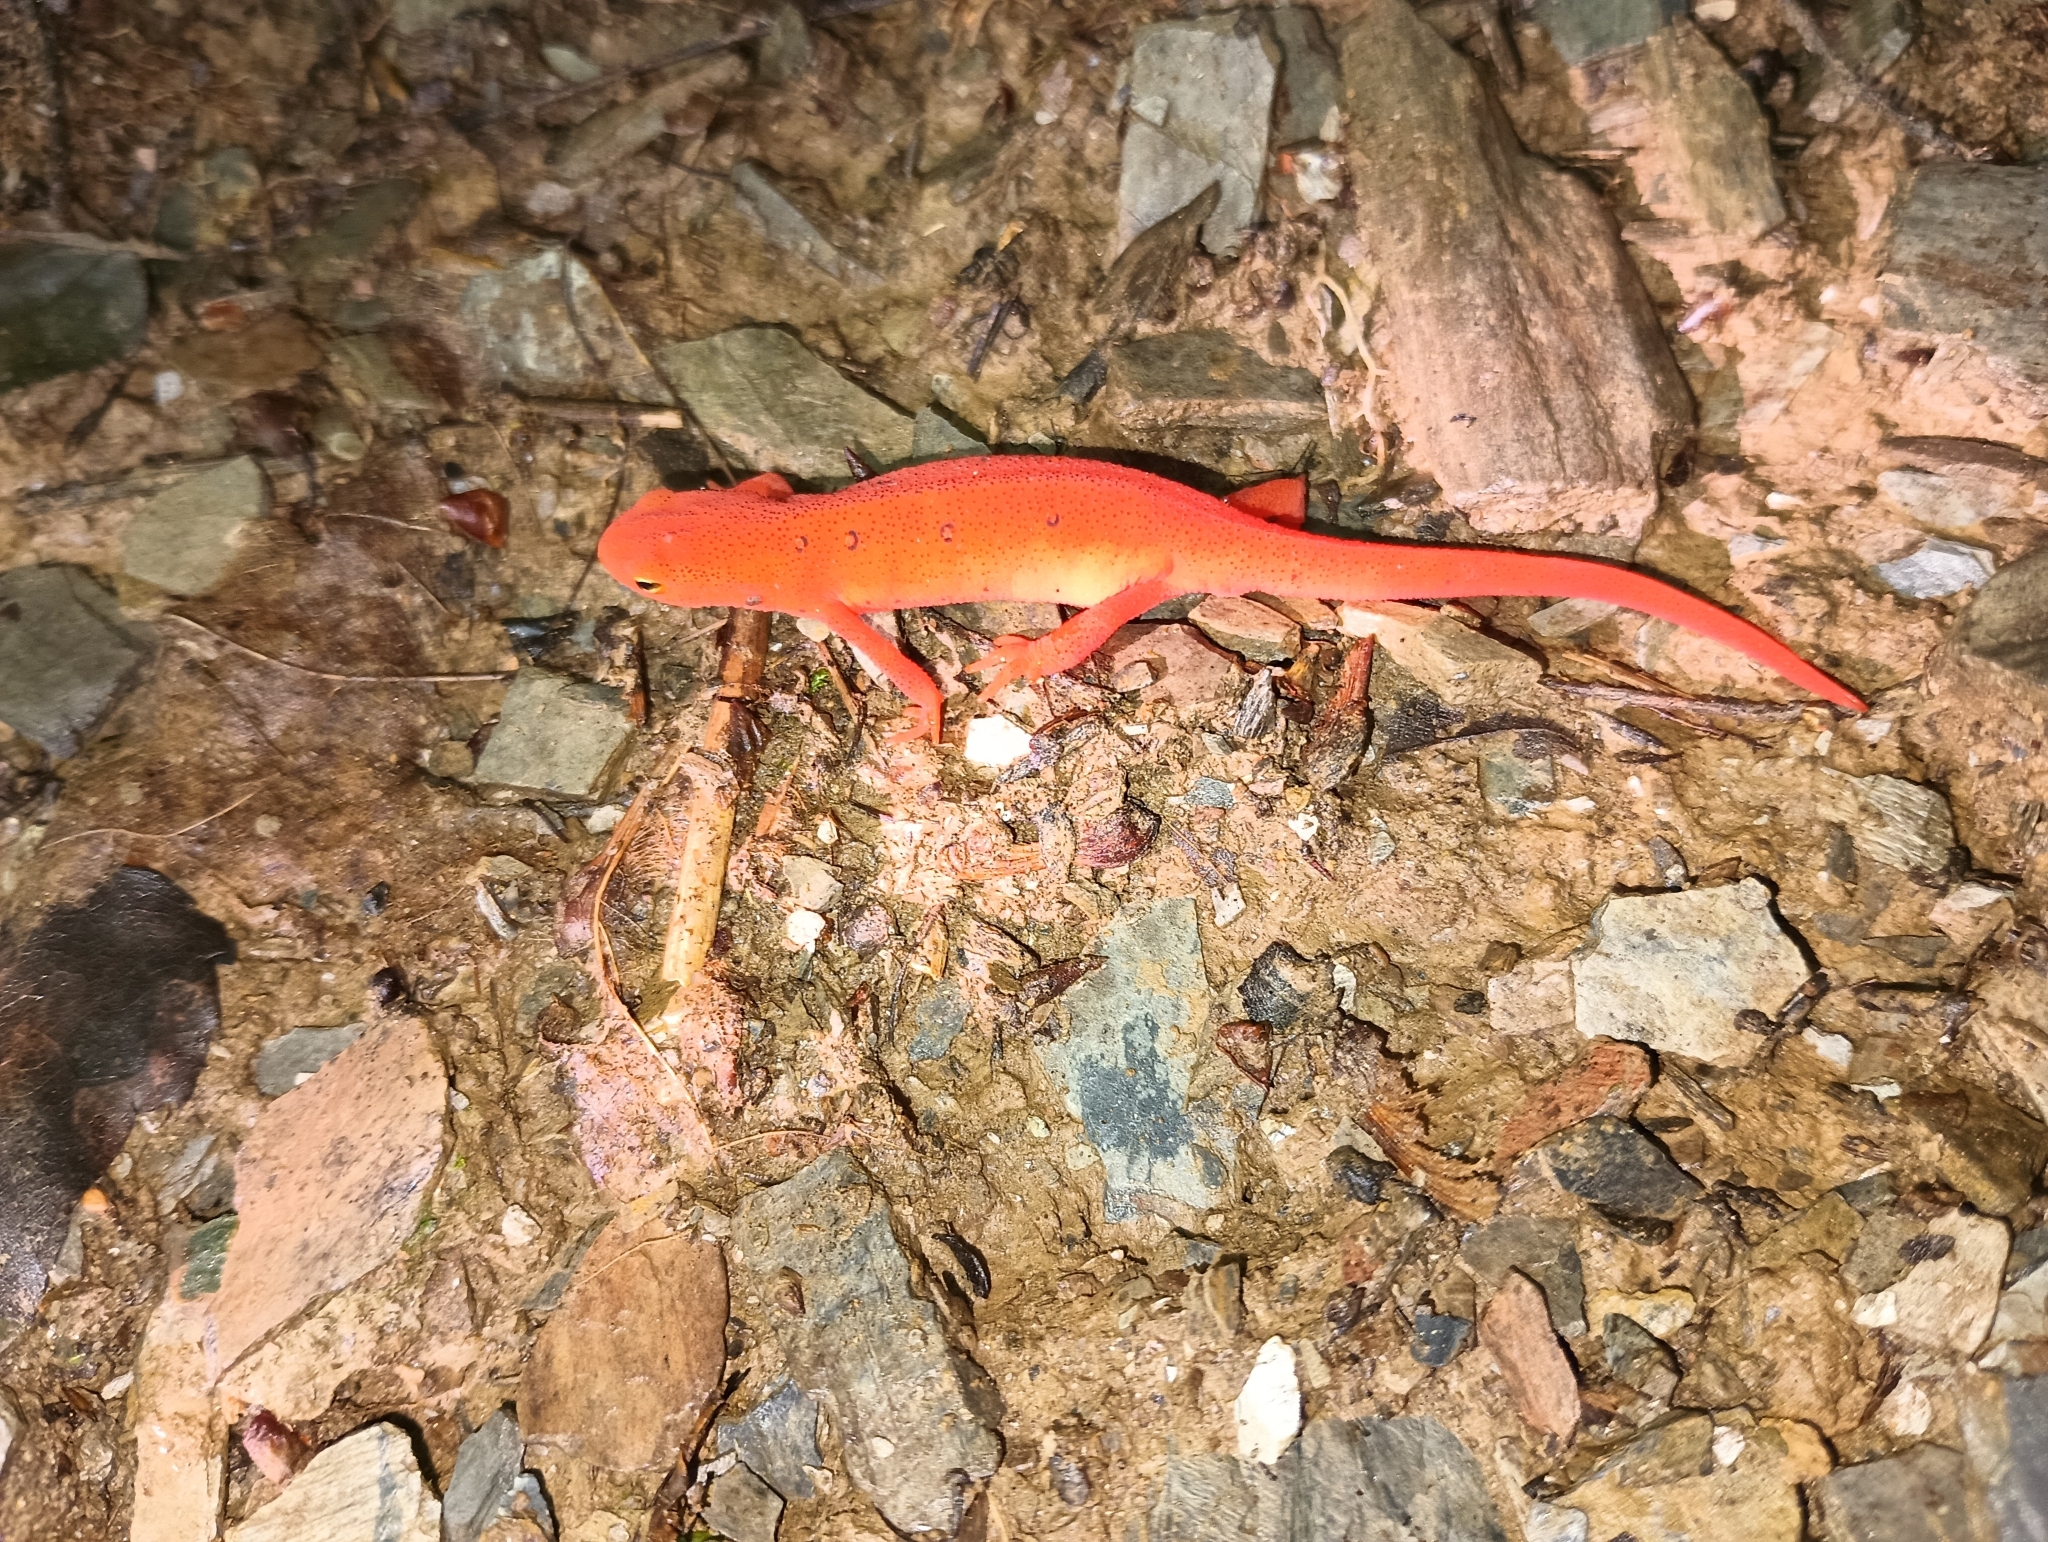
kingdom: Animalia
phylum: Chordata
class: Amphibia
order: Caudata
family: Salamandridae
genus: Notophthalmus
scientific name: Notophthalmus viridescens
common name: Eastern newt
